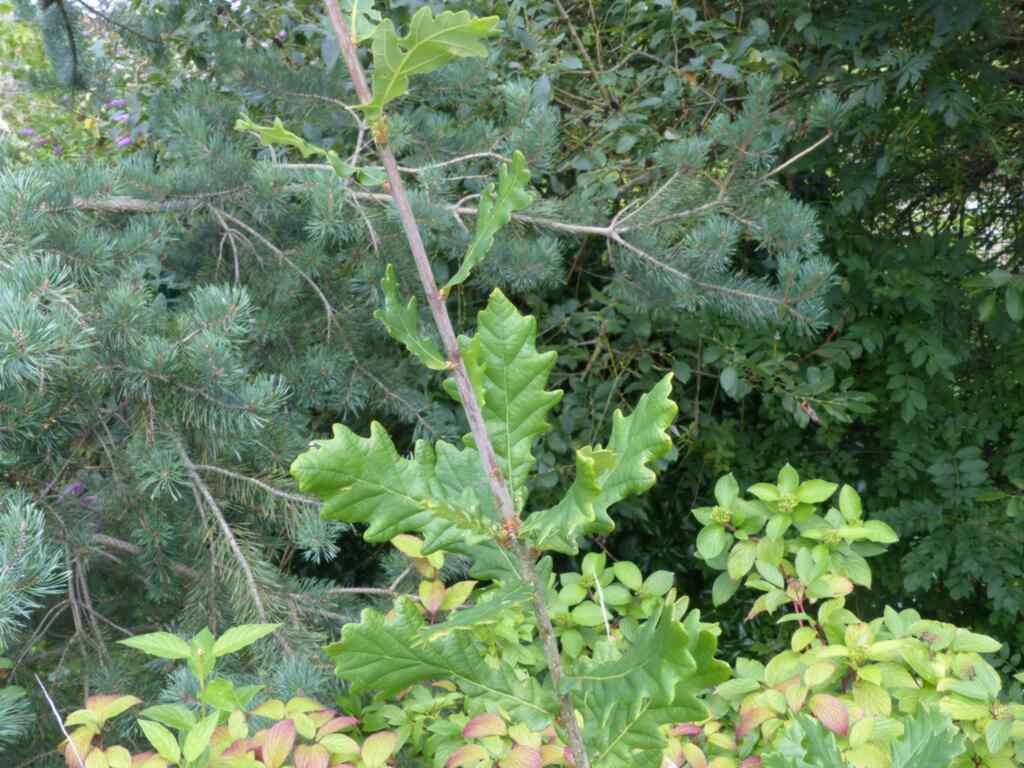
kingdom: Plantae
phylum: Tracheophyta
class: Magnoliopsida
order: Fagales
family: Fagaceae
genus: Quercus
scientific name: Quercus robur
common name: Pedunculate oak
